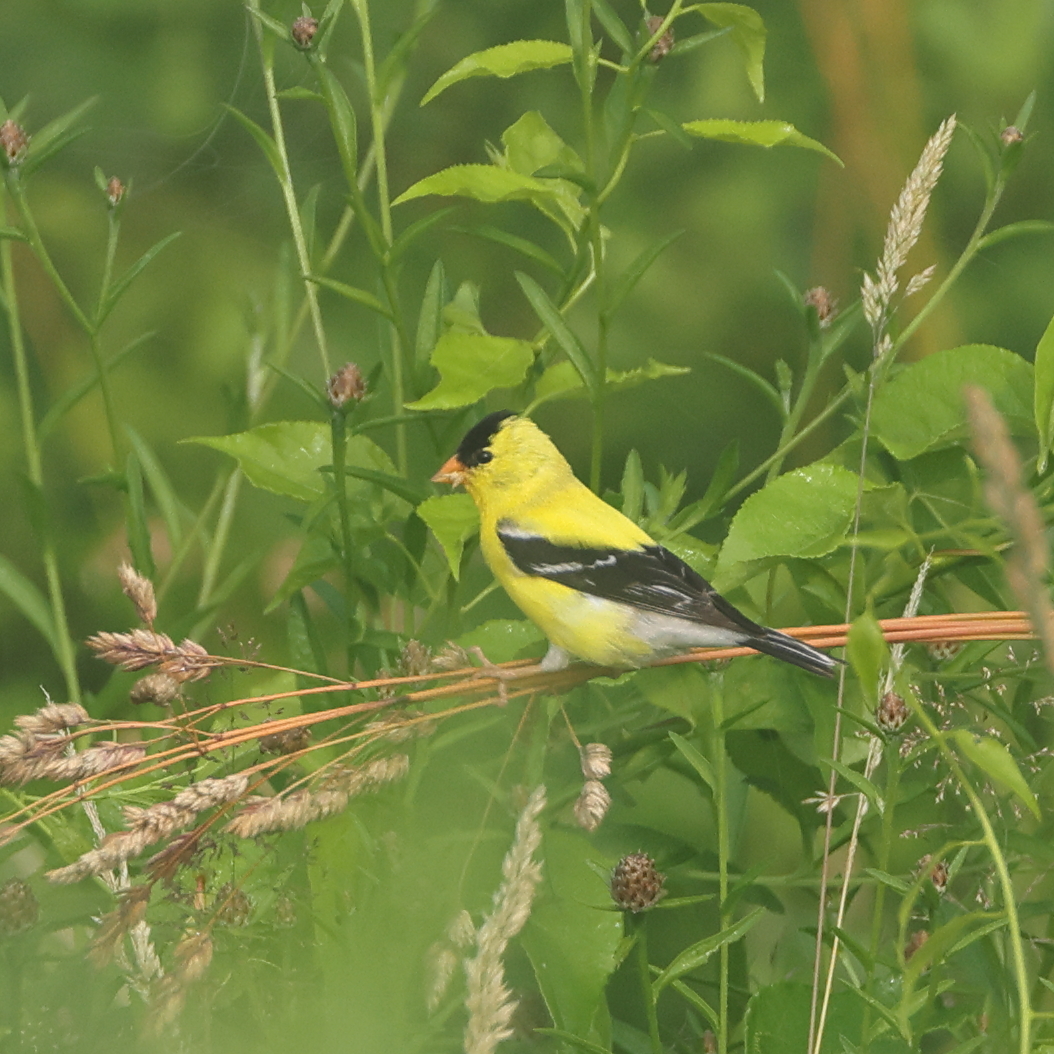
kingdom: Animalia
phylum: Chordata
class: Aves
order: Passeriformes
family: Fringillidae
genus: Spinus
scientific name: Spinus tristis
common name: American goldfinch
